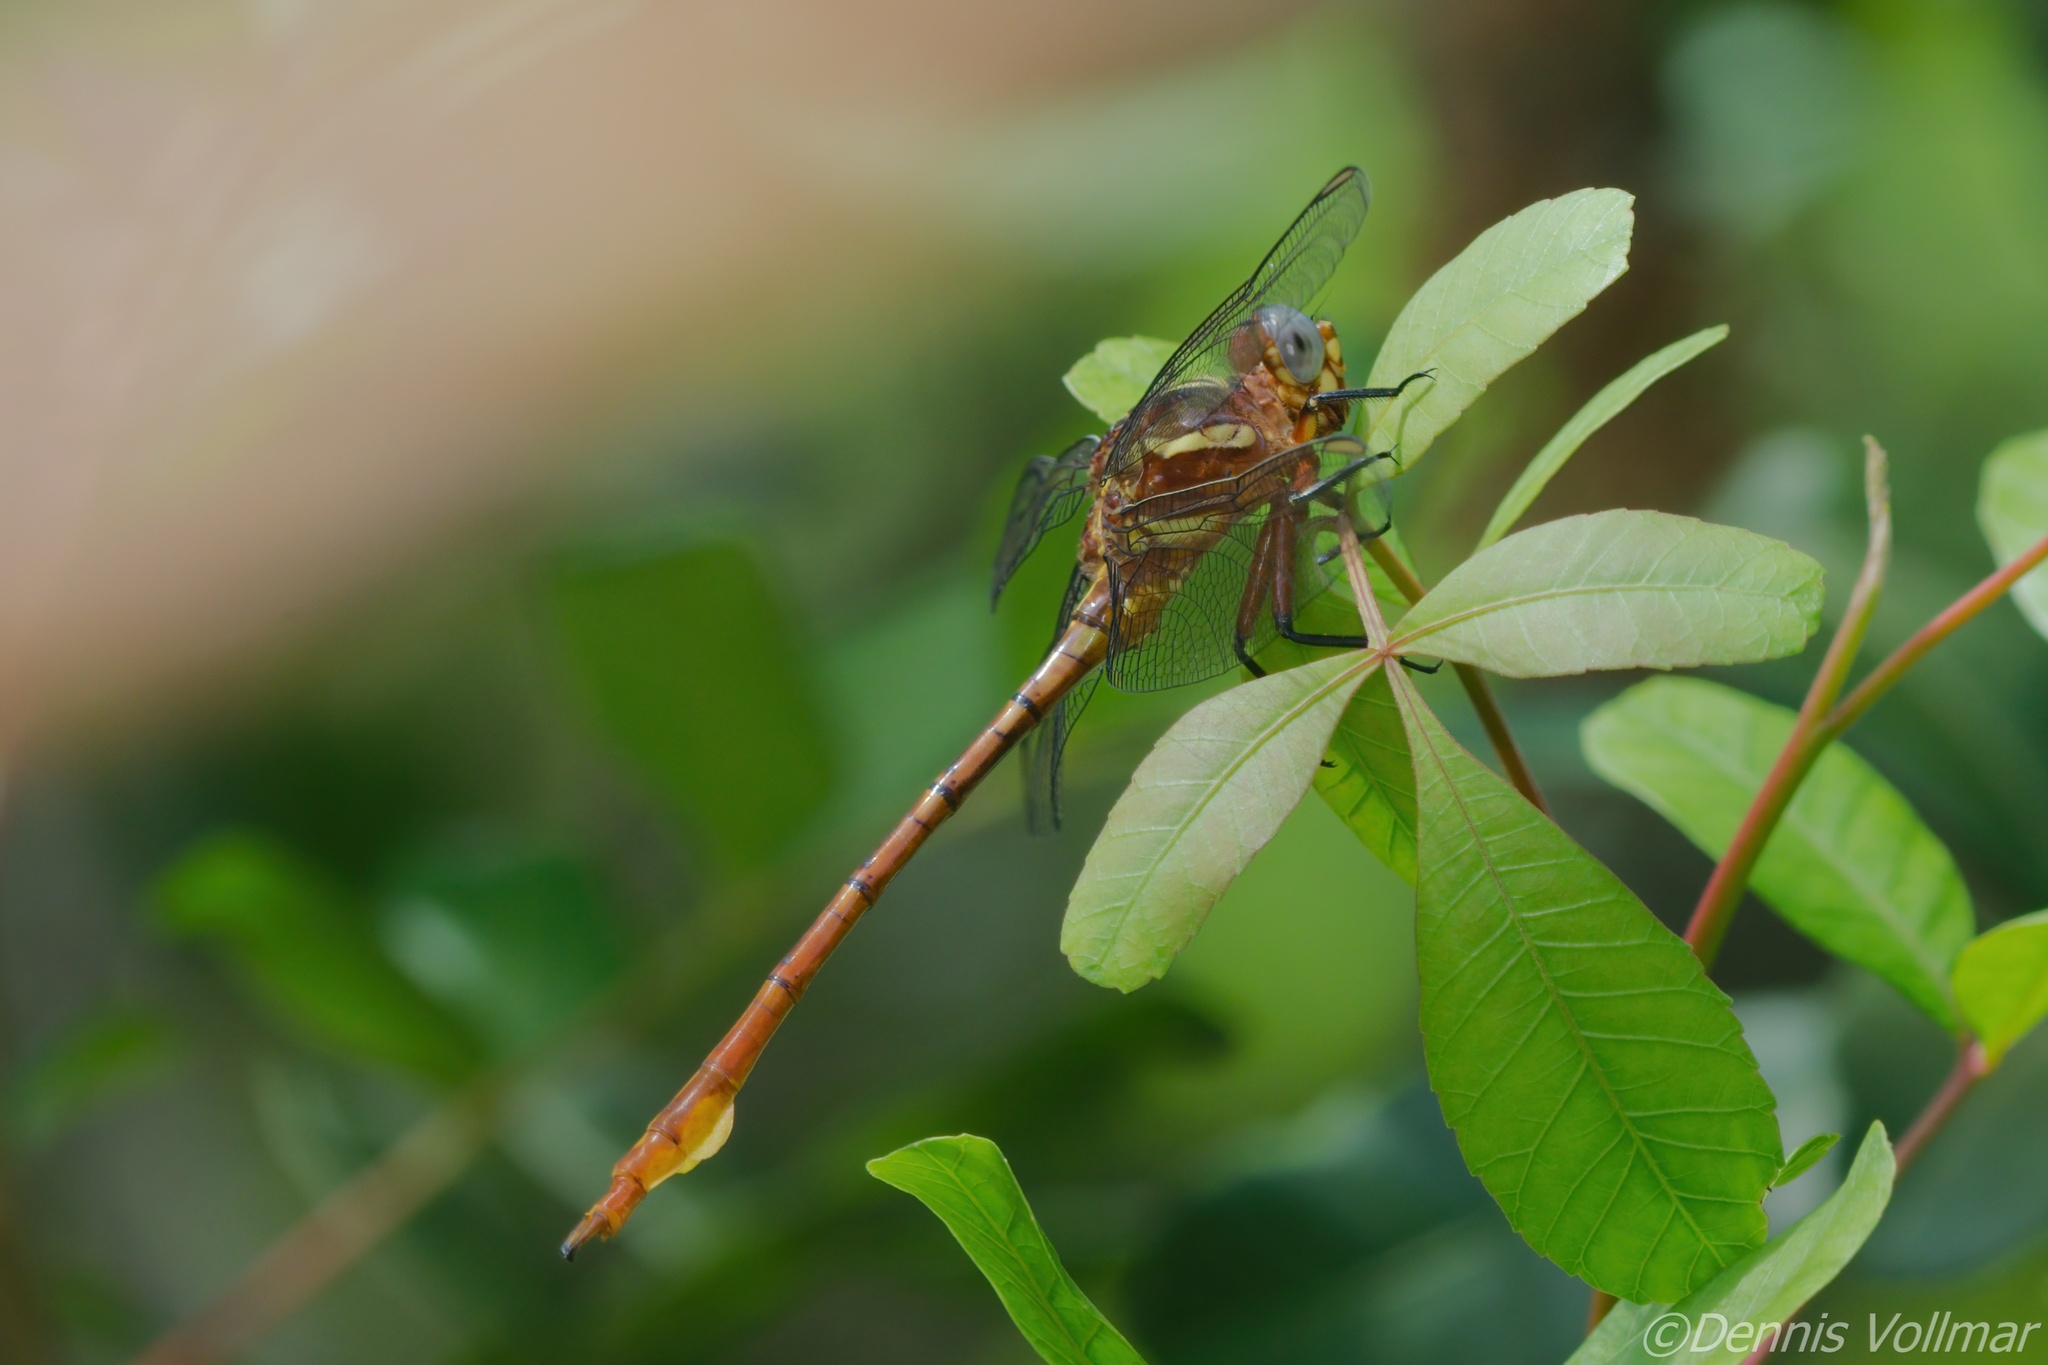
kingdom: Animalia
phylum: Arthropoda
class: Insecta
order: Odonata
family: Gomphidae
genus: Aphylla
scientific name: Aphylla williamsoni
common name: Two-striped forceptail
